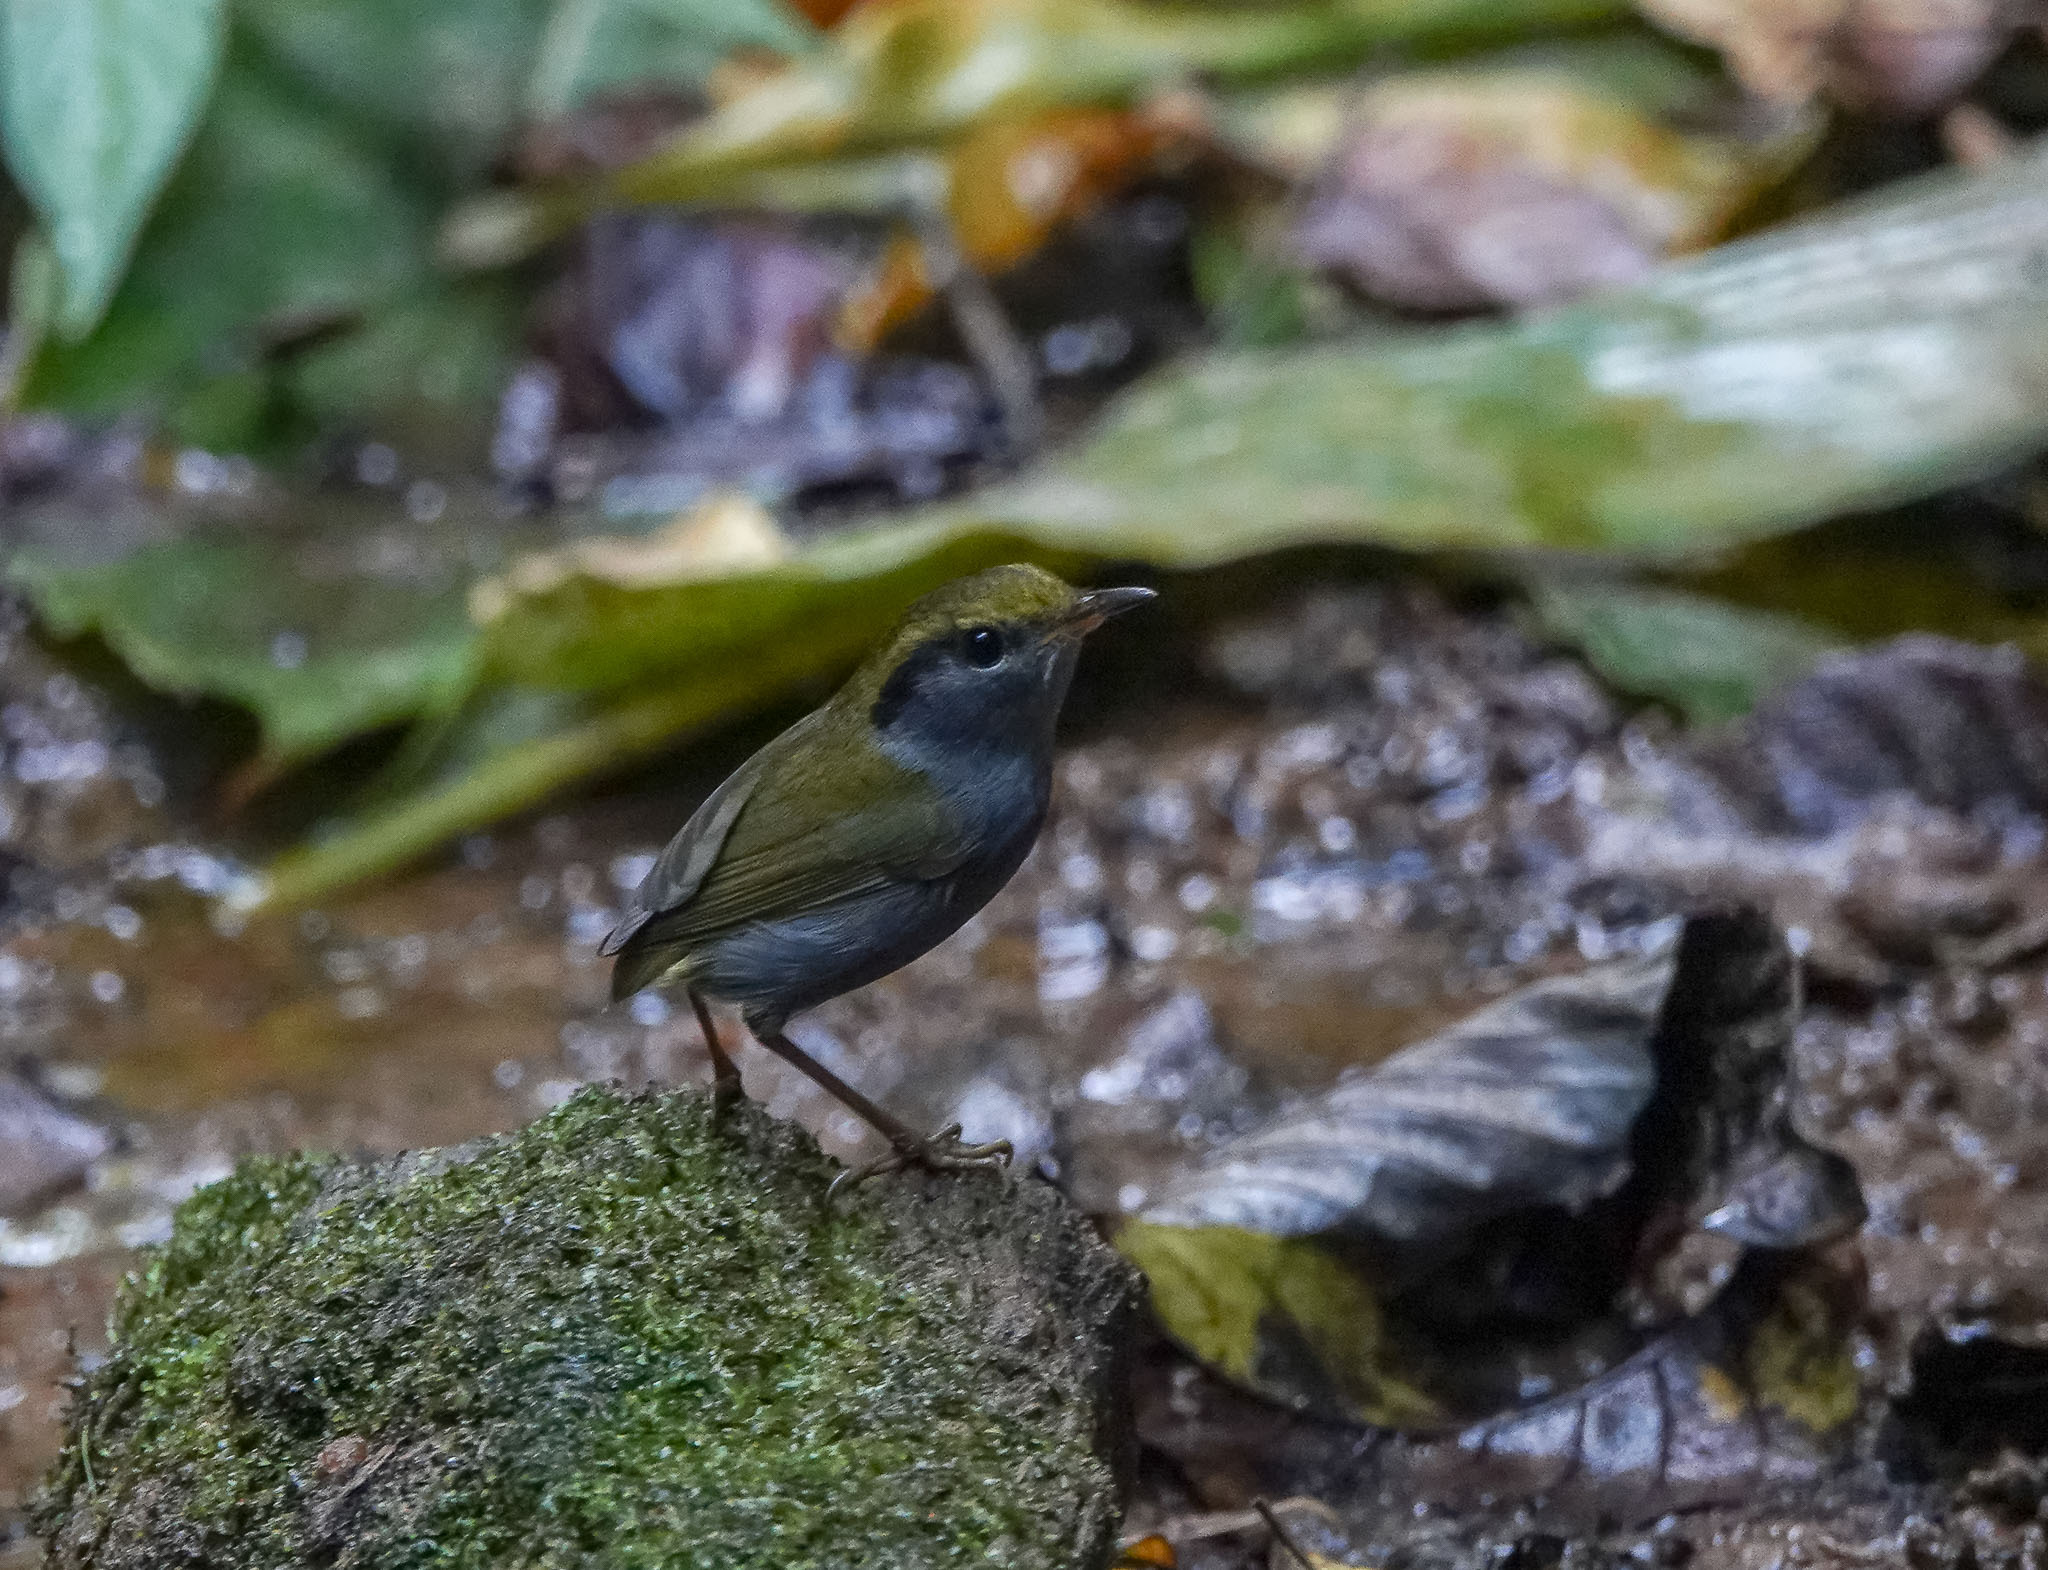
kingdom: Animalia
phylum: Chordata
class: Aves
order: Passeriformes
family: Cettiidae
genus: Tesia
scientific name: Tesia cyaniventer
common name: Grey-bellied tesia
